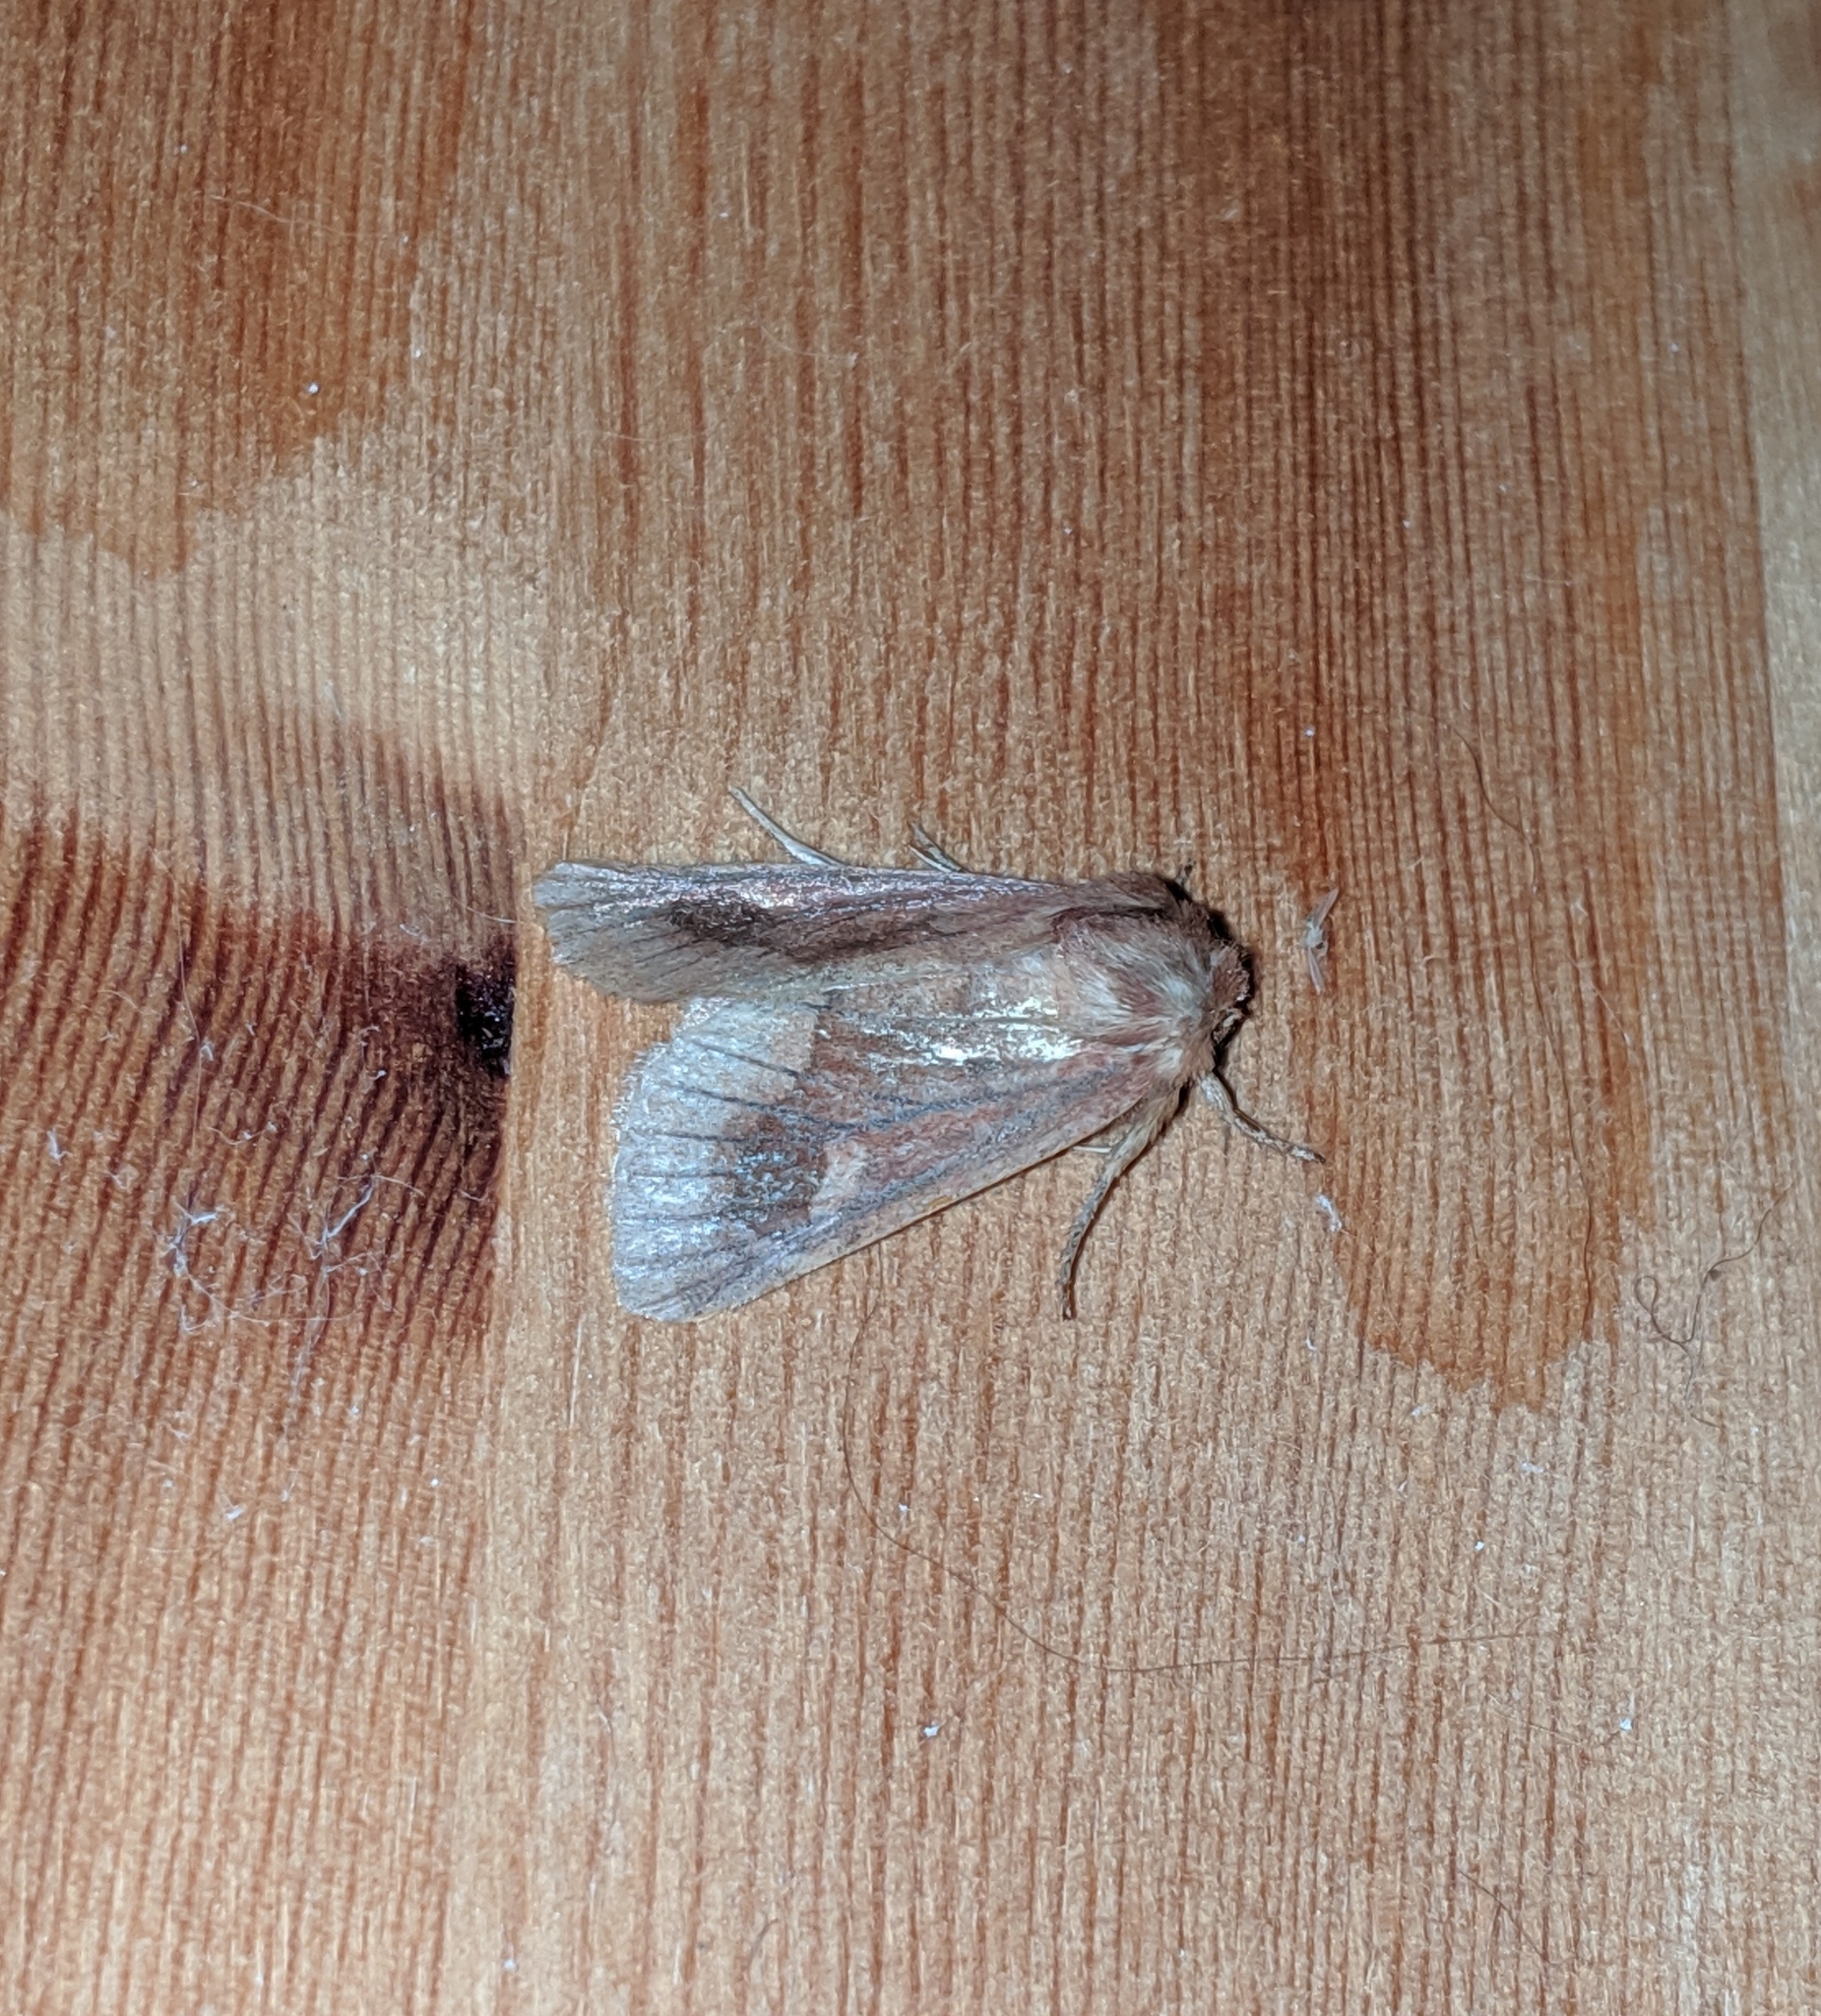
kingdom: Animalia
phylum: Arthropoda
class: Insecta
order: Lepidoptera
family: Noctuidae
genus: Nephelodes
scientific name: Nephelodes minians
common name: Bronzed cutworm
